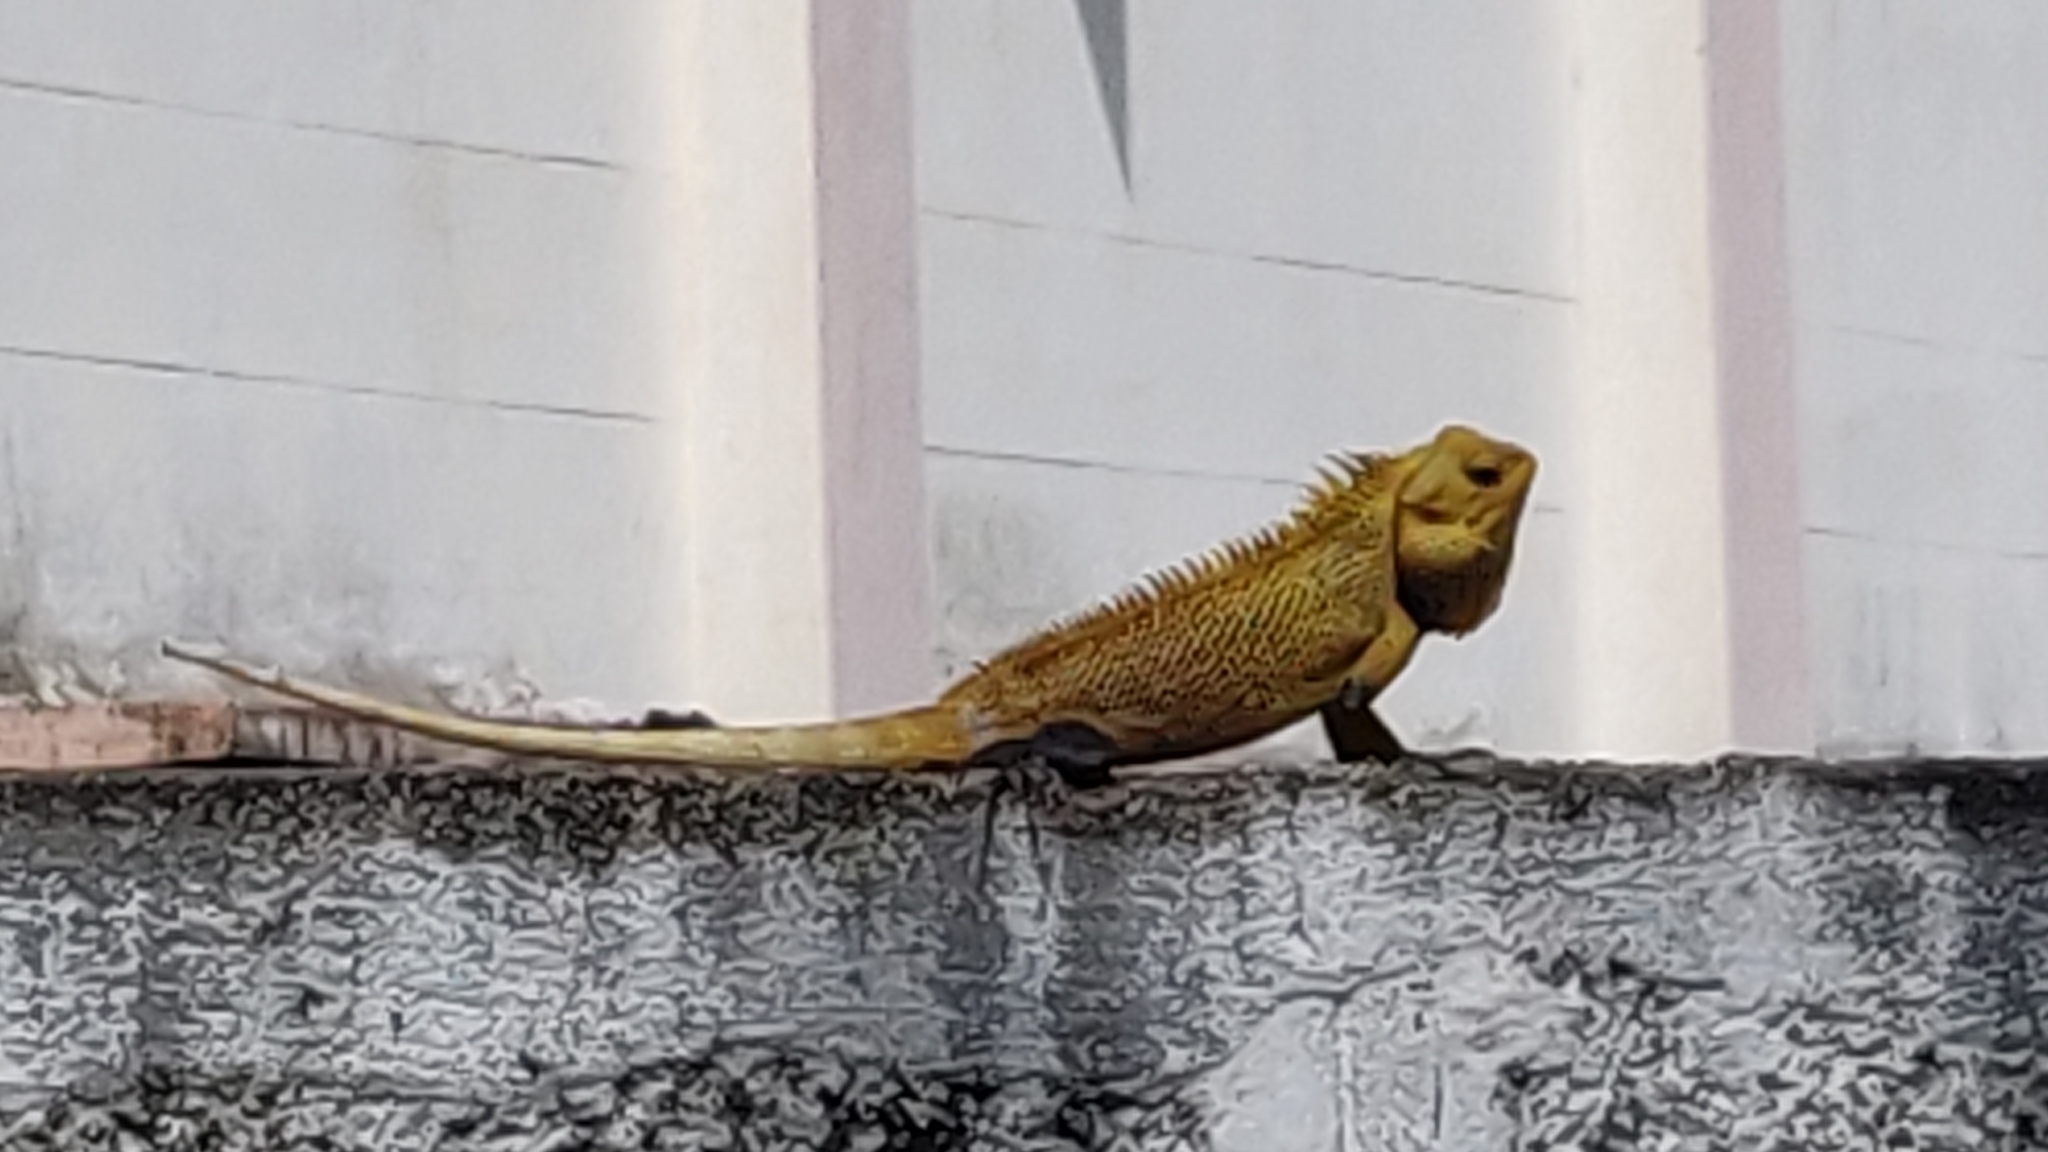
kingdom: Animalia
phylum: Chordata
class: Squamata
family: Agamidae
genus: Calotes
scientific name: Calotes versicolor
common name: Oriental garden lizard
